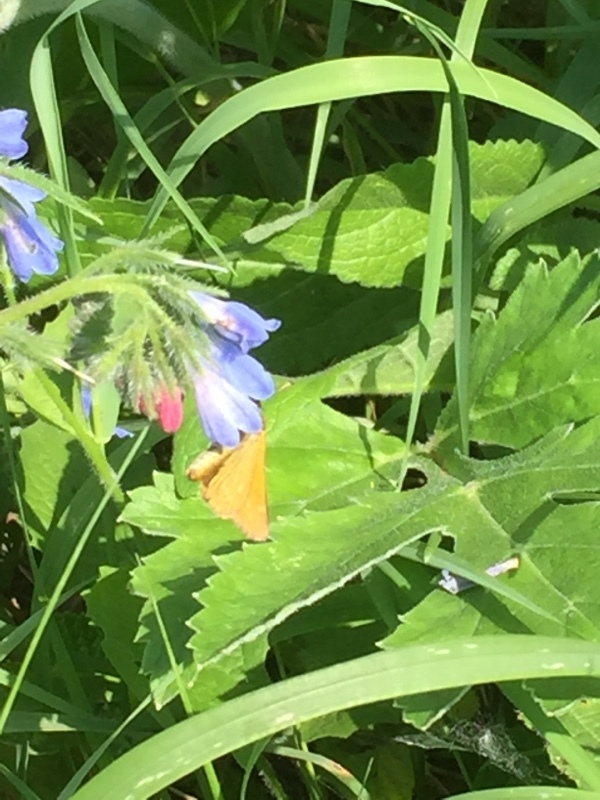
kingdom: Animalia
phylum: Arthropoda
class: Insecta
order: Lepidoptera
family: Hesperiidae
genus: Ochlodes
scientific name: Ochlodes venata
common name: Large skipper
